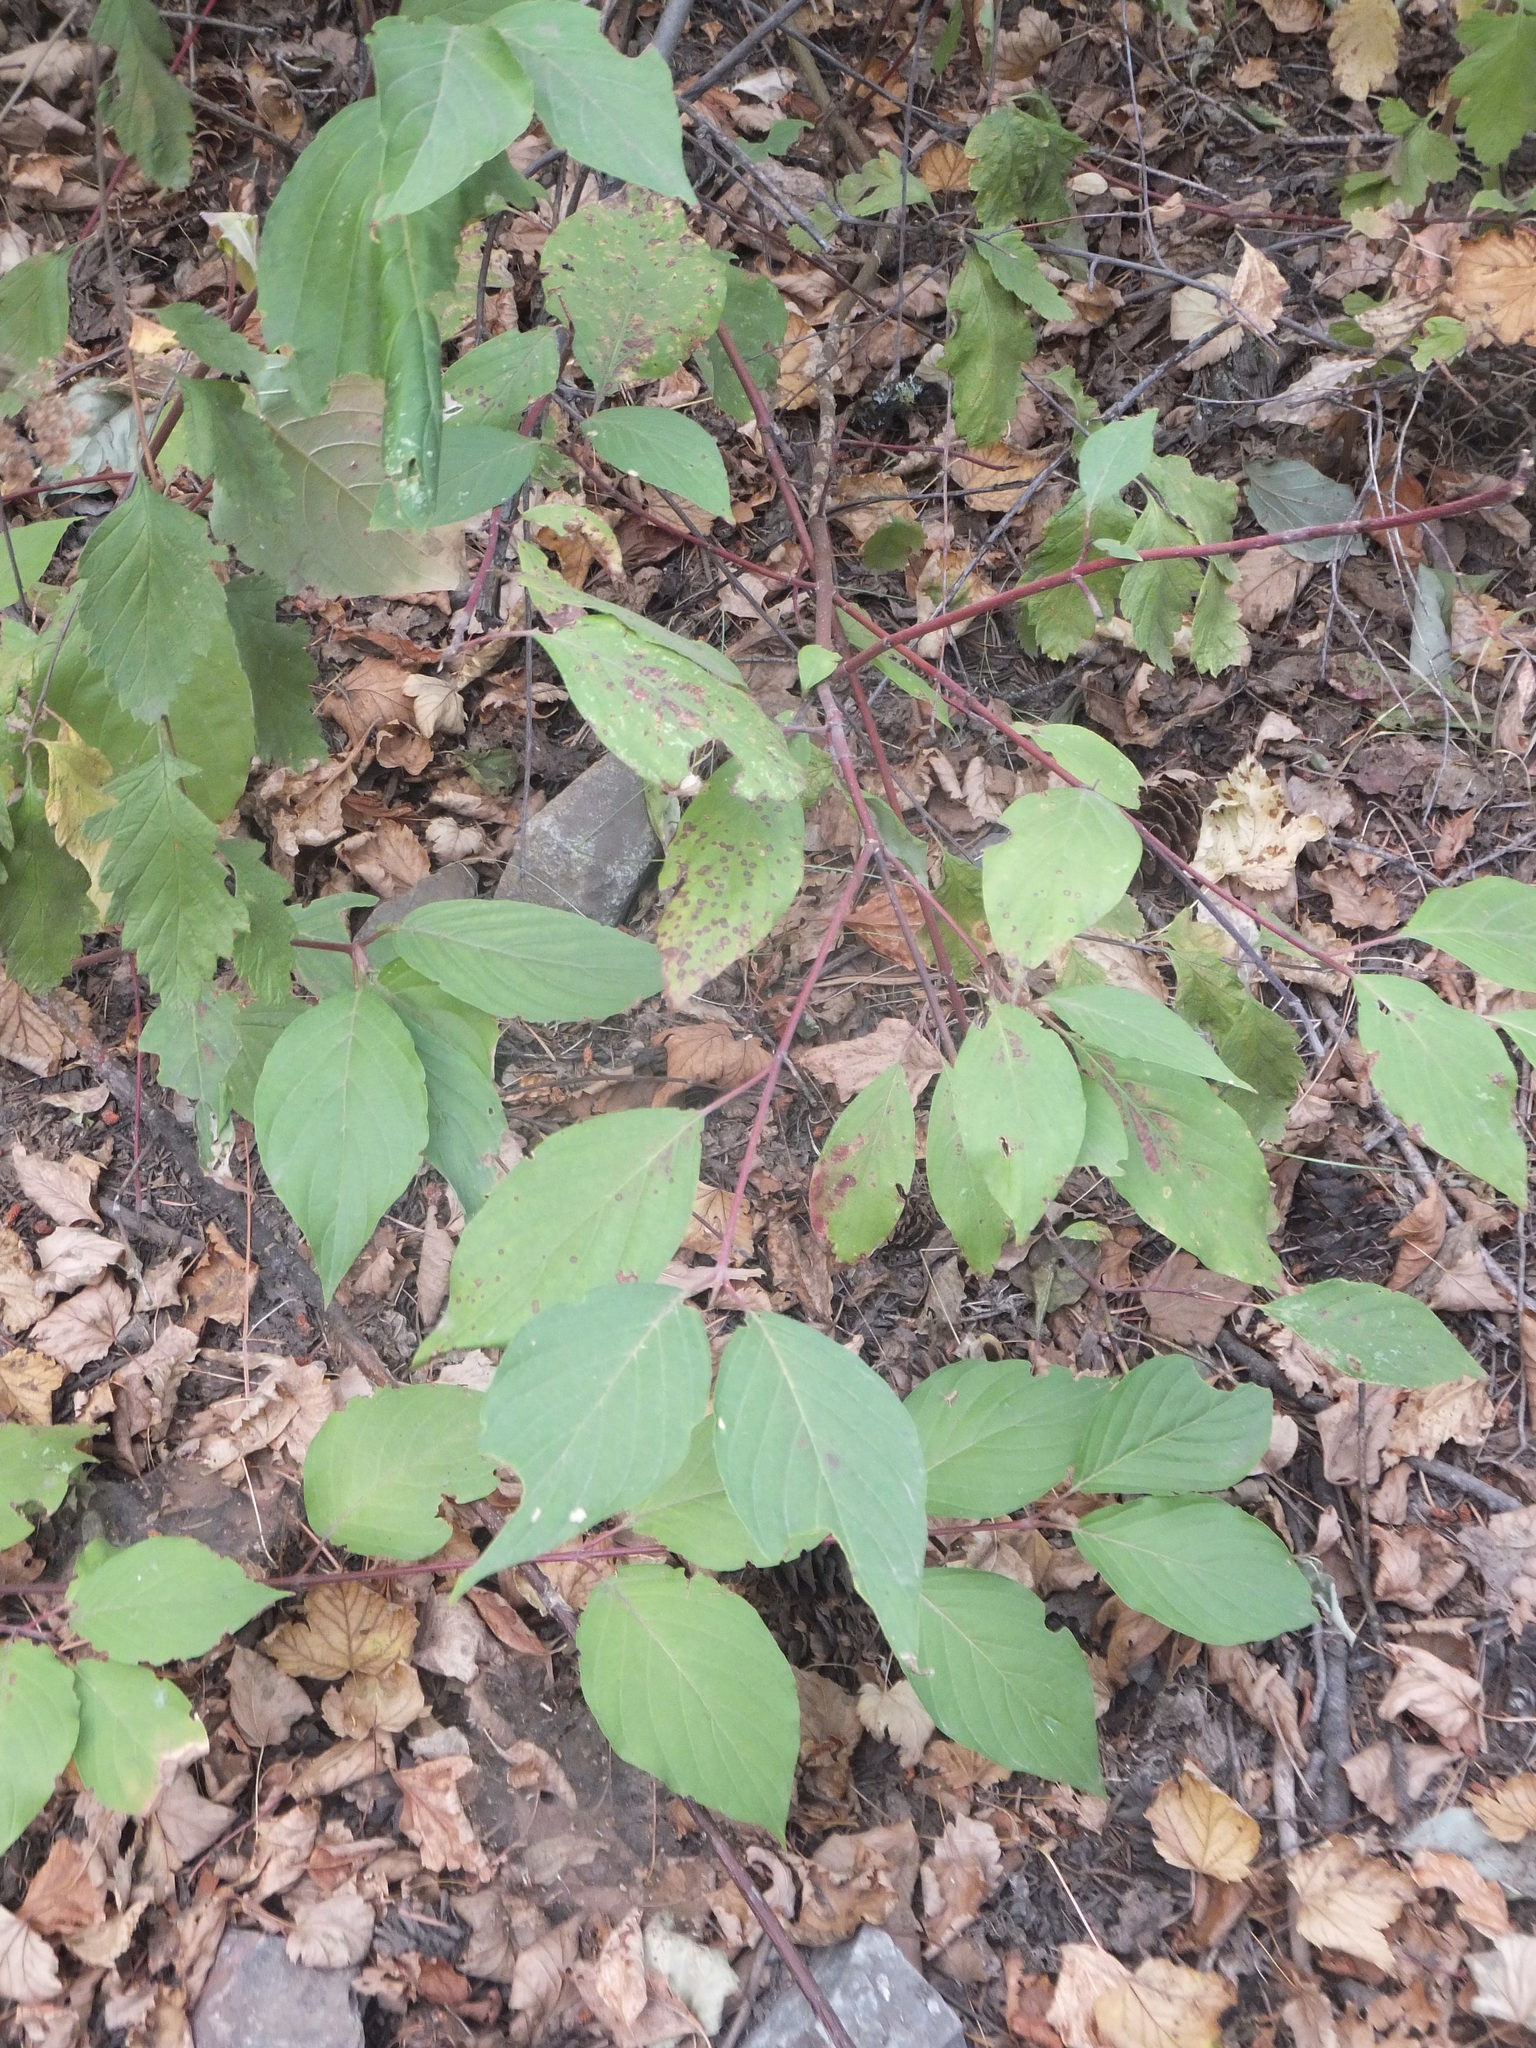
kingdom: Plantae
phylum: Tracheophyta
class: Magnoliopsida
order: Cornales
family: Cornaceae
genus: Cornus
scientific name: Cornus sericea
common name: Red-osier dogwood
